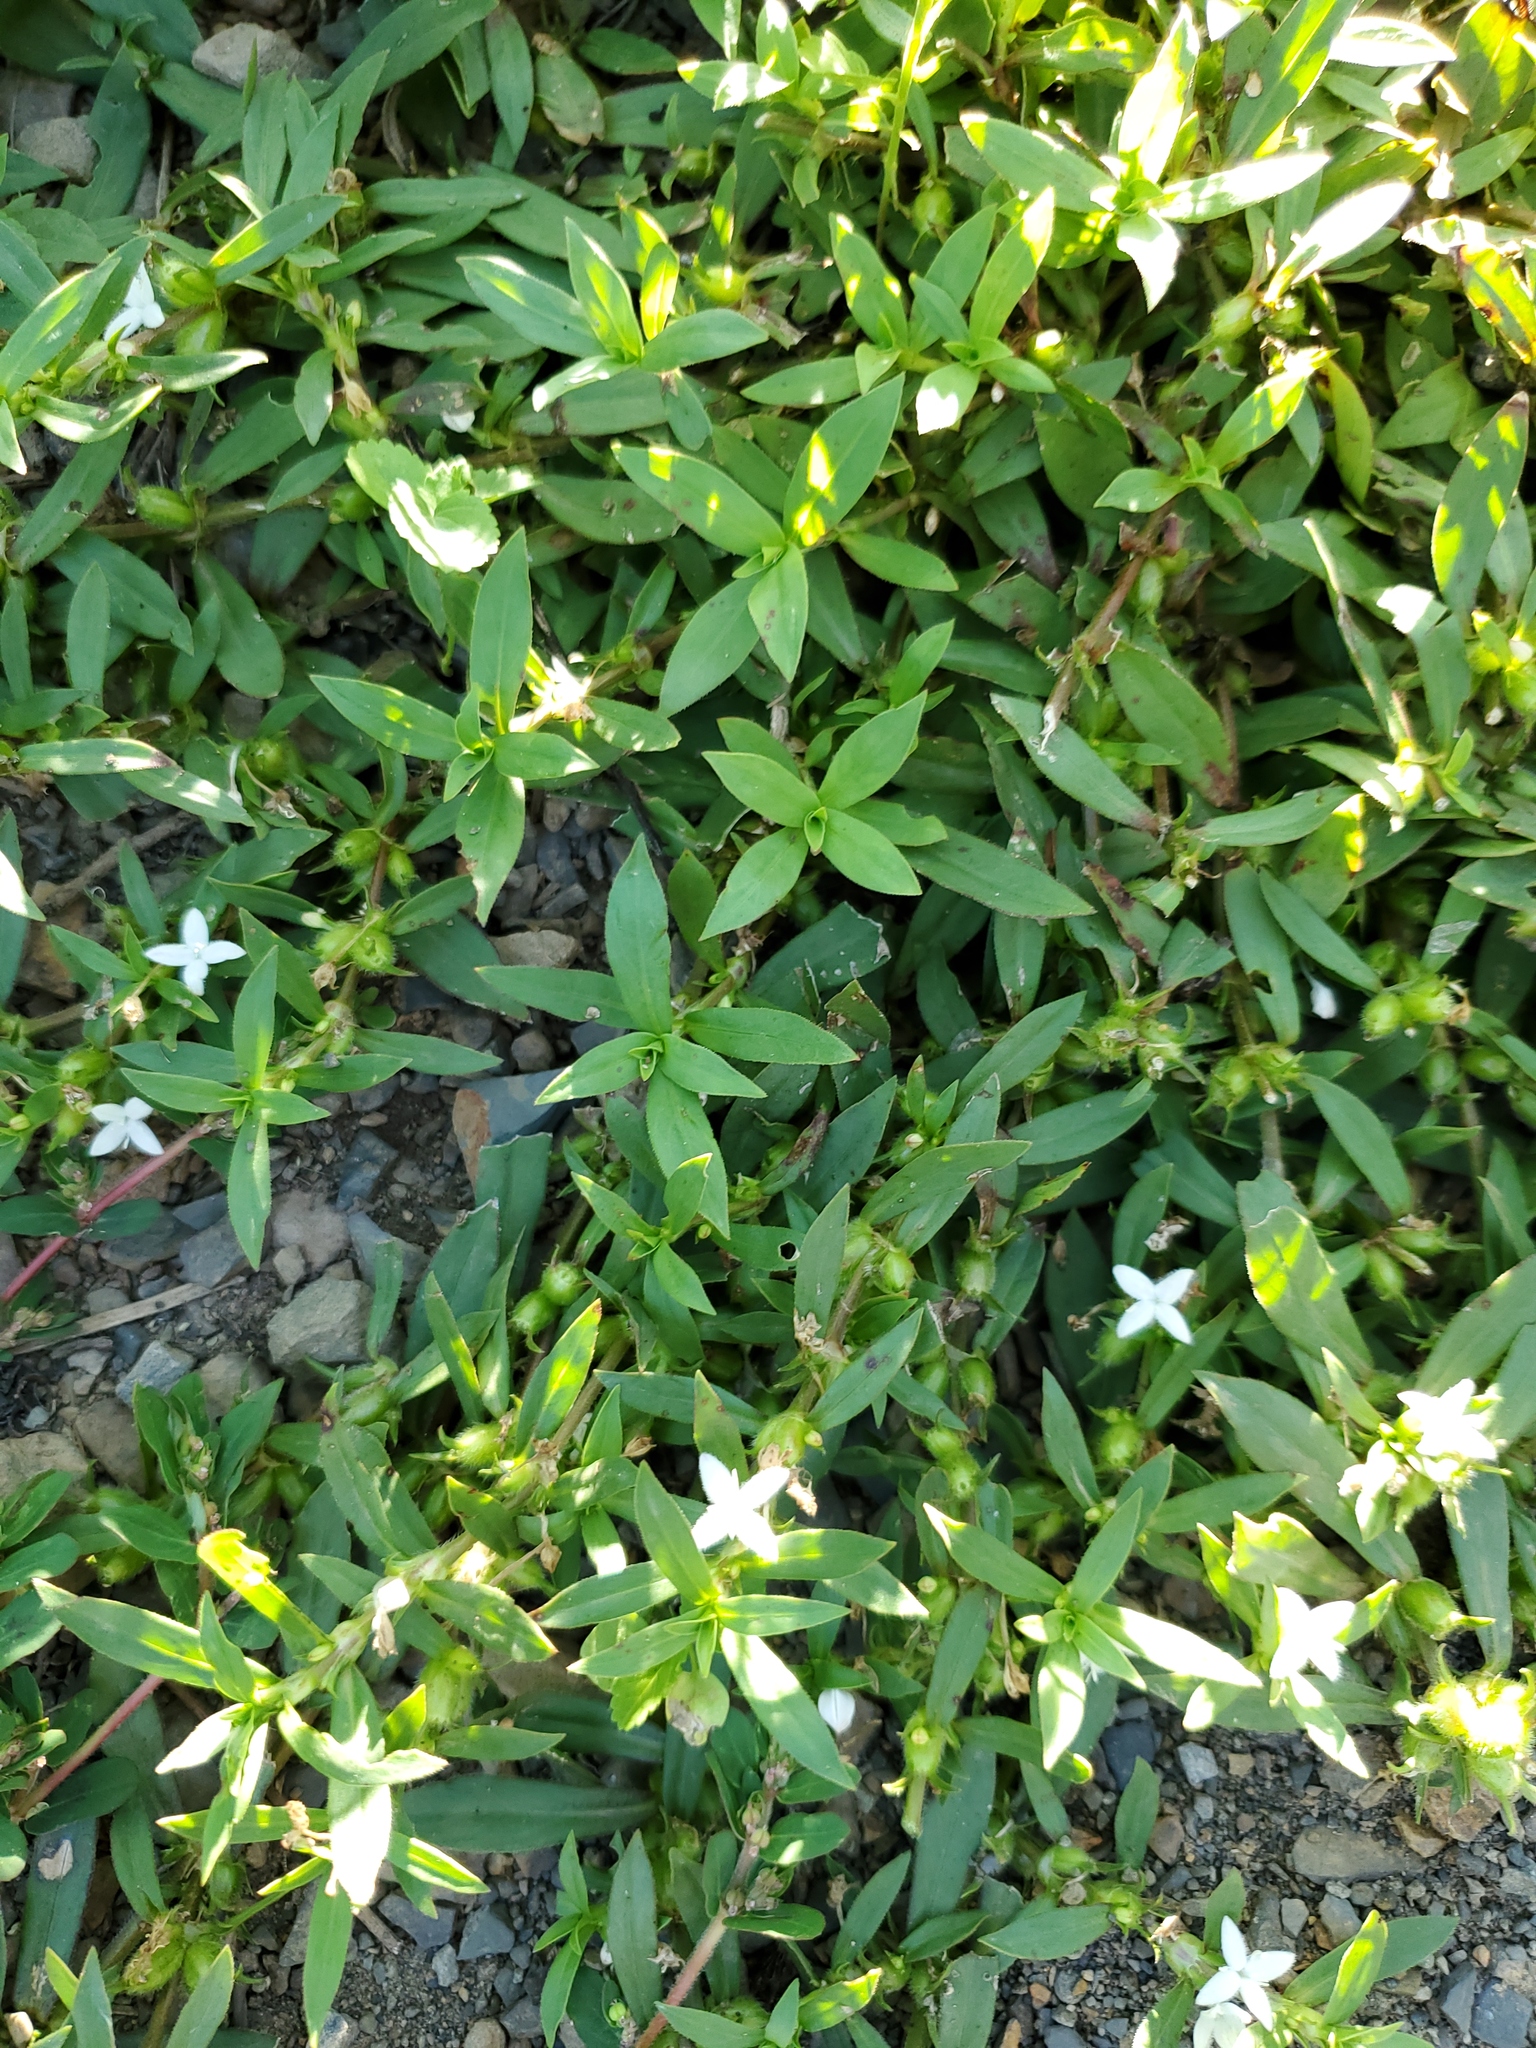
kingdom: Plantae
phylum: Tracheophyta
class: Magnoliopsida
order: Gentianales
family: Rubiaceae
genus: Diodia
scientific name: Diodia virginiana
